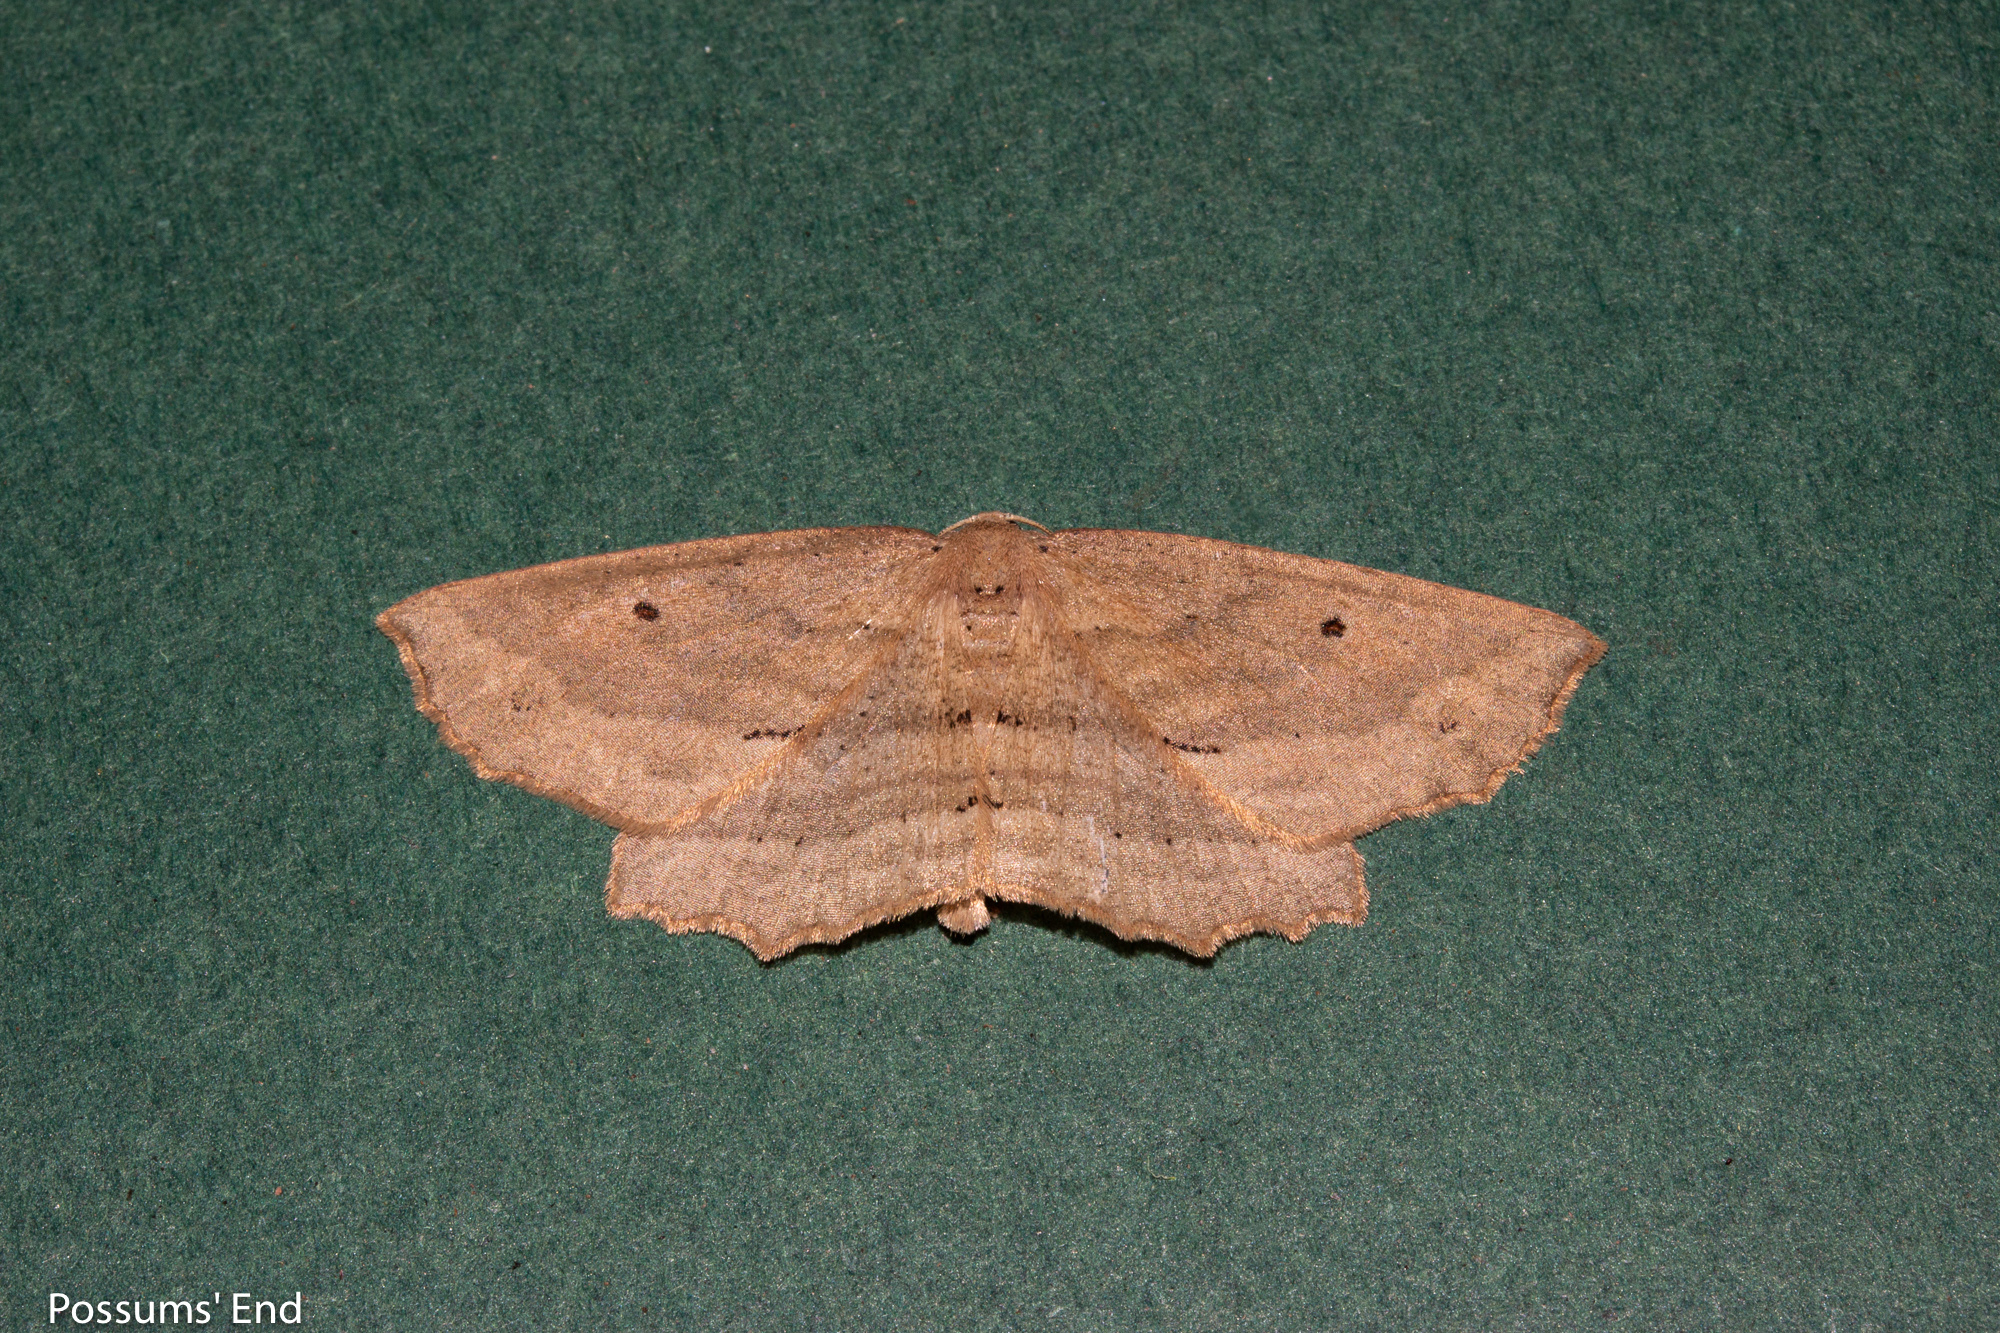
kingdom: Animalia
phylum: Arthropoda
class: Insecta
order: Lepidoptera
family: Geometridae
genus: Xyridacma
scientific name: Xyridacma veronicae
